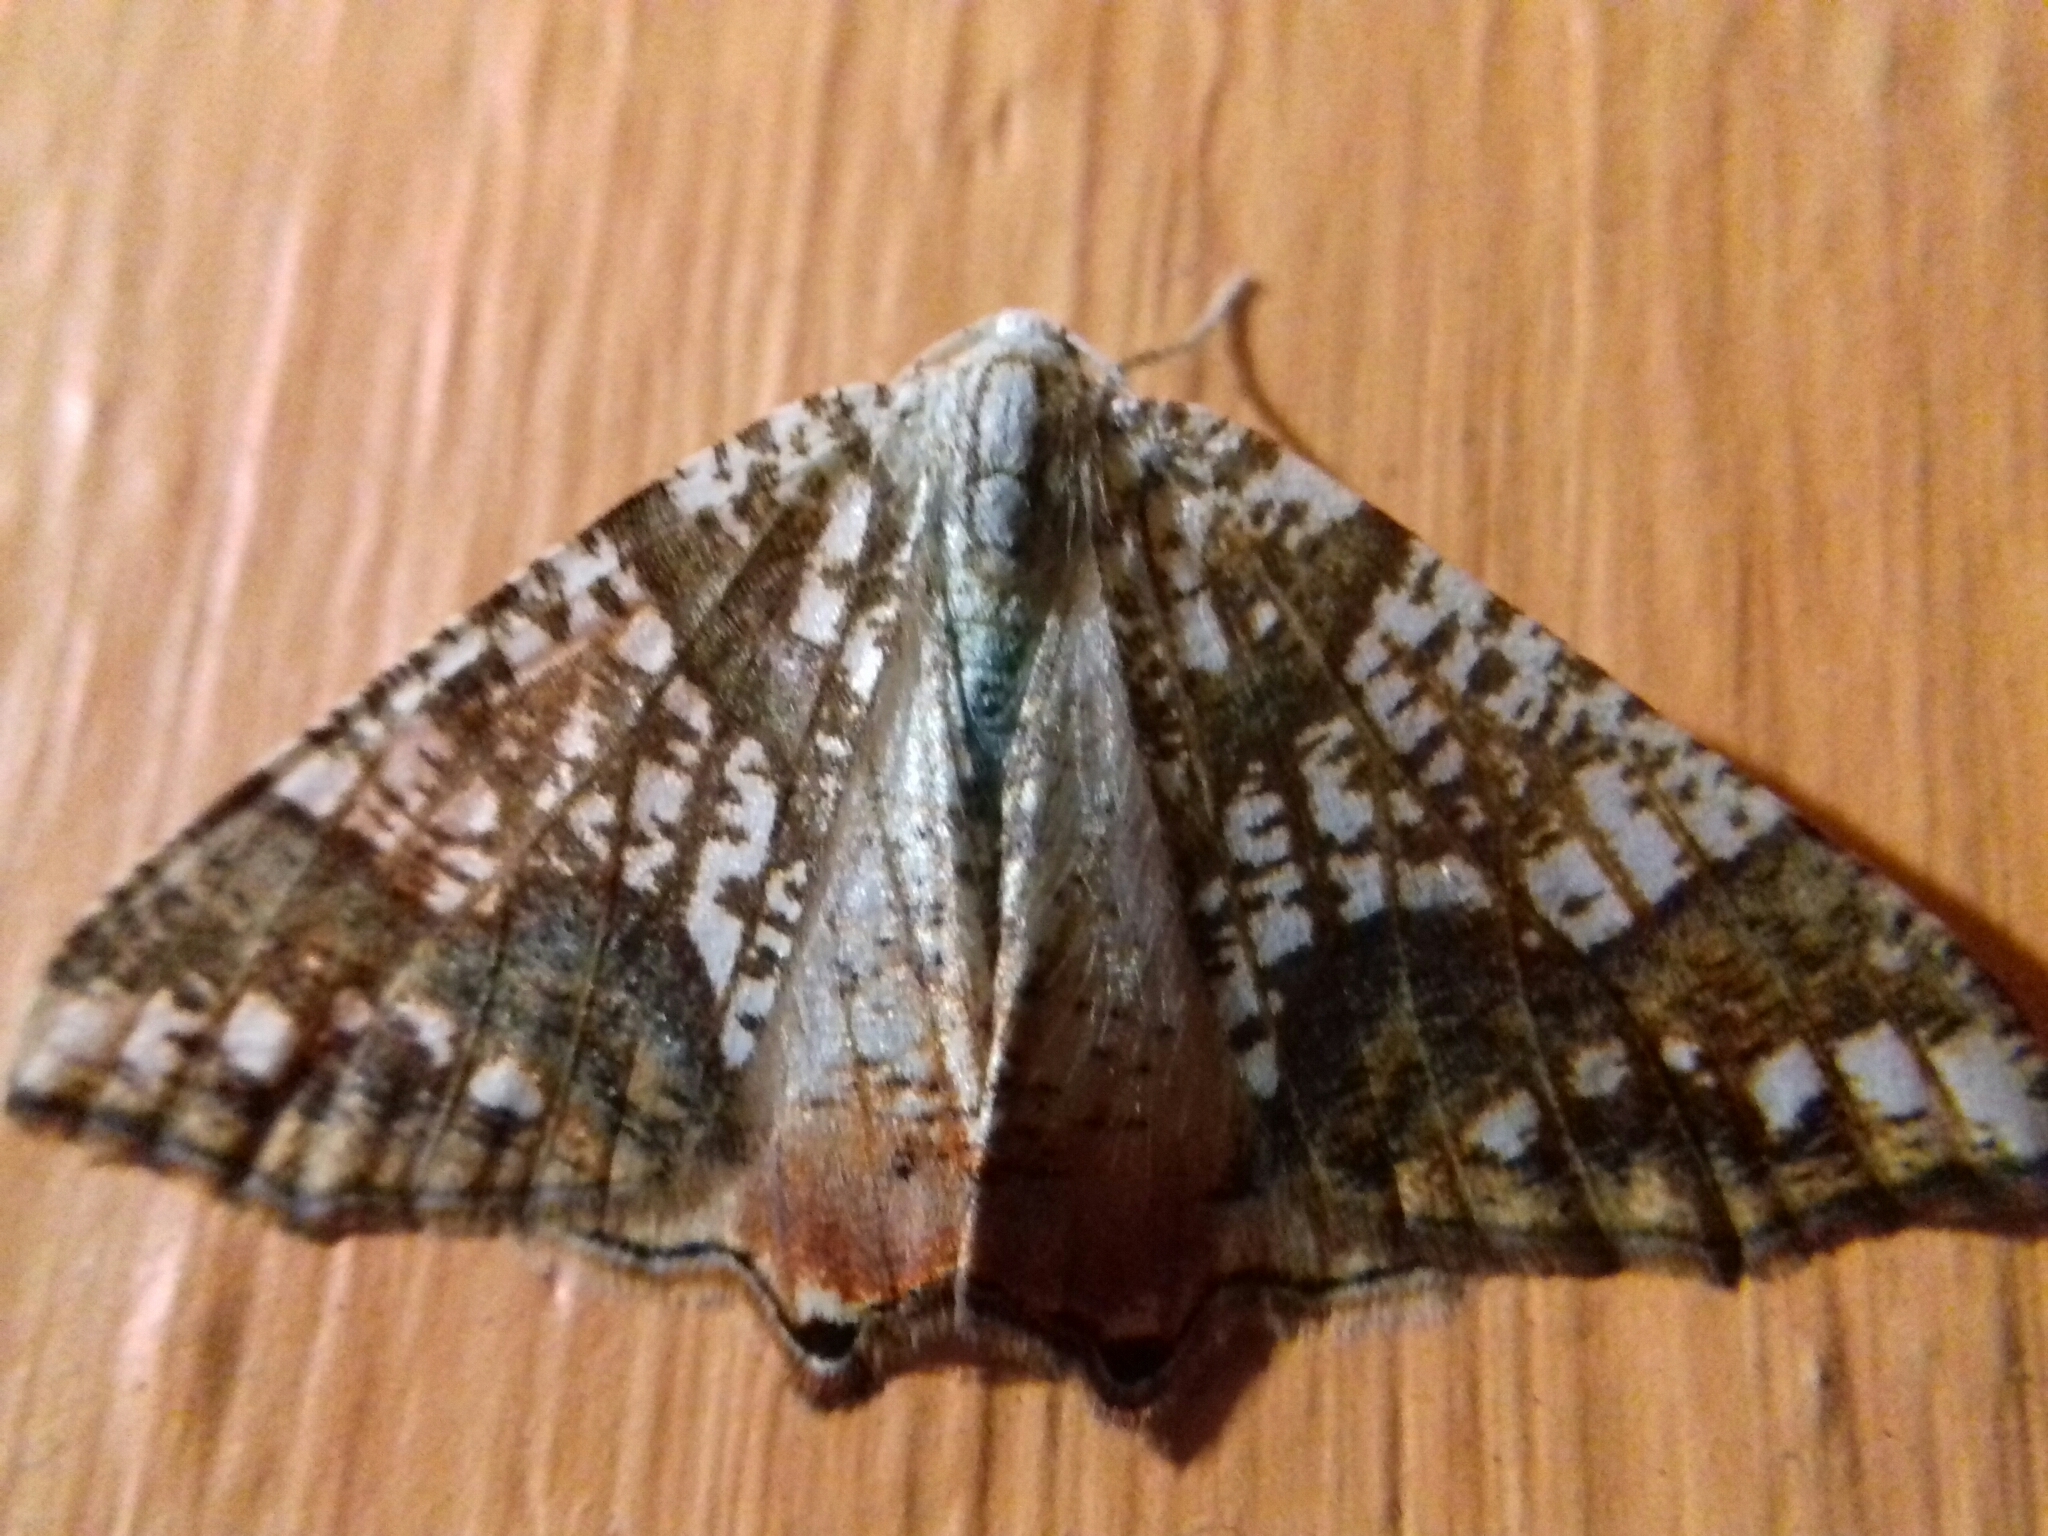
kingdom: Animalia
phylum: Arthropoda
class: Insecta
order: Lepidoptera
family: Geometridae
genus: Rindgeria
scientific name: Rindgeria ornata
